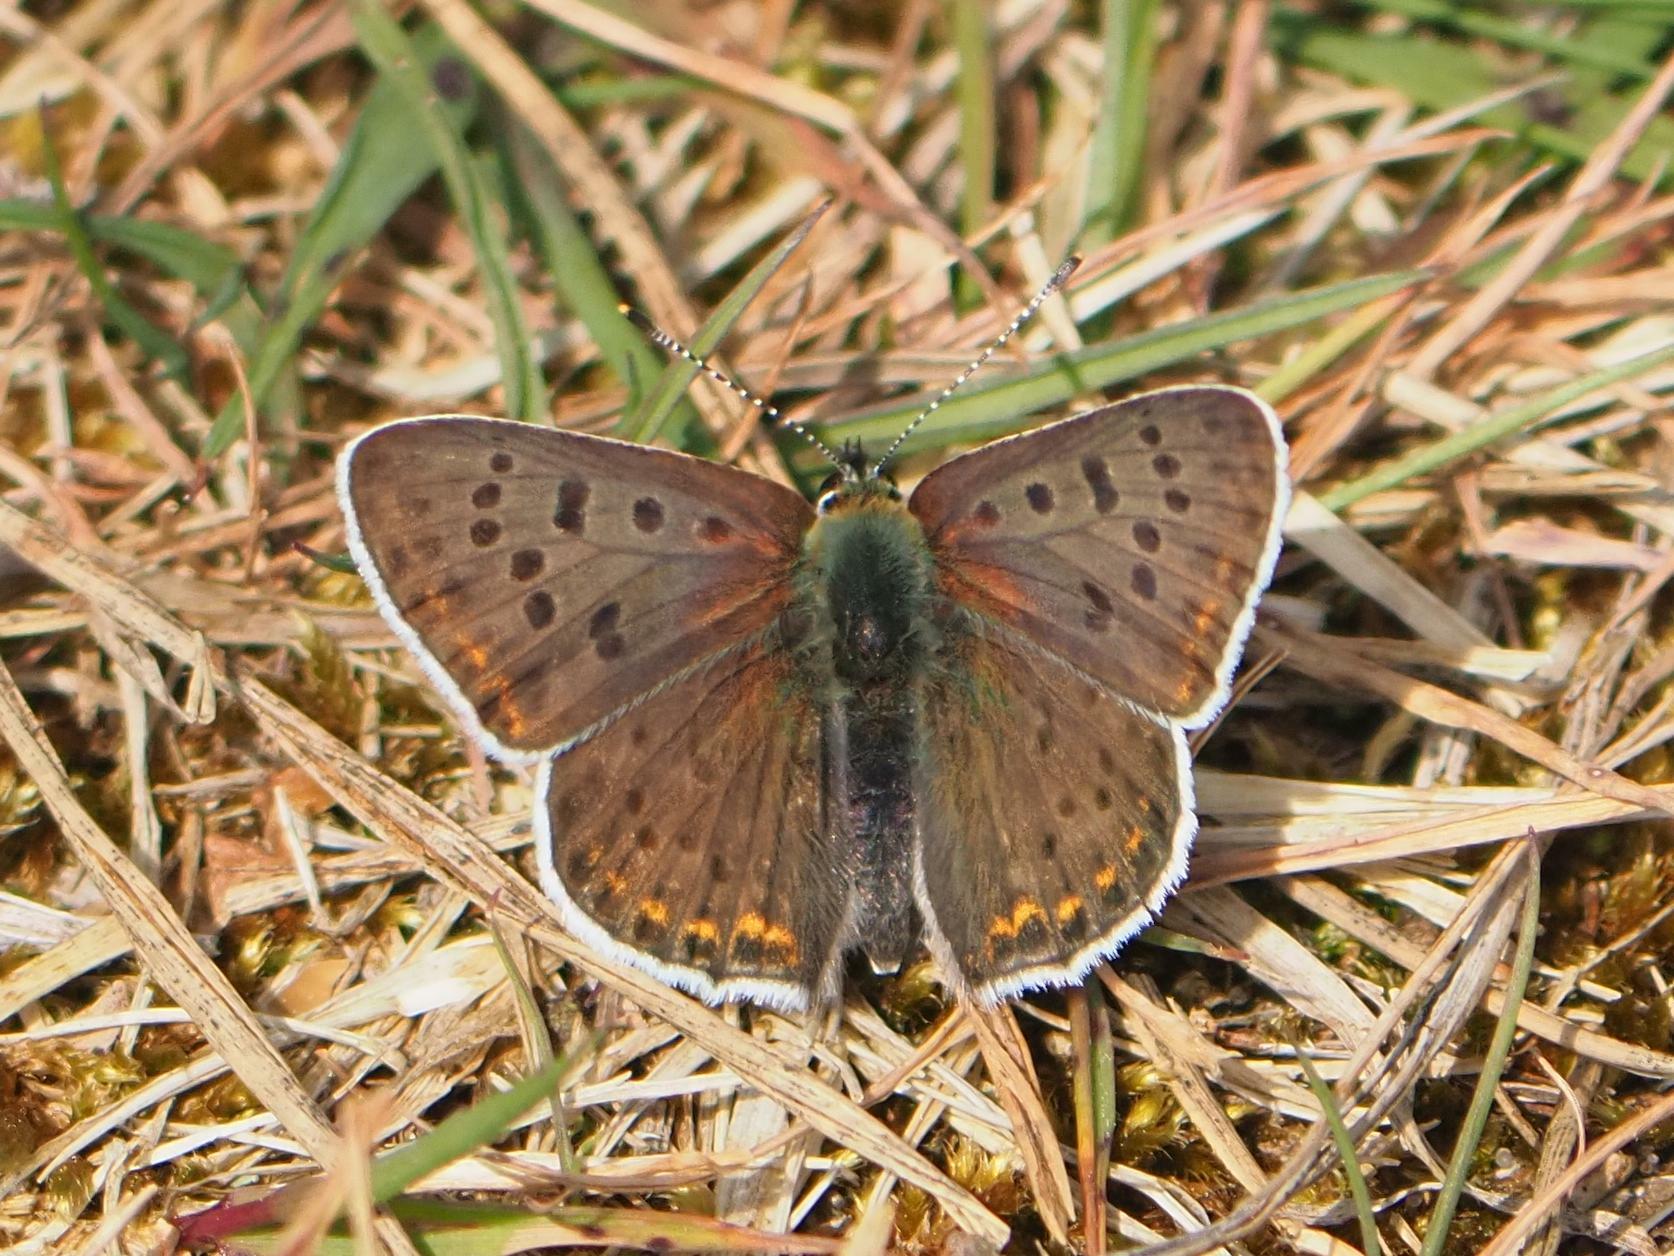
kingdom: Animalia
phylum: Arthropoda
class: Insecta
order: Lepidoptera
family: Lycaenidae
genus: Loweia
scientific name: Loweia tityrus
